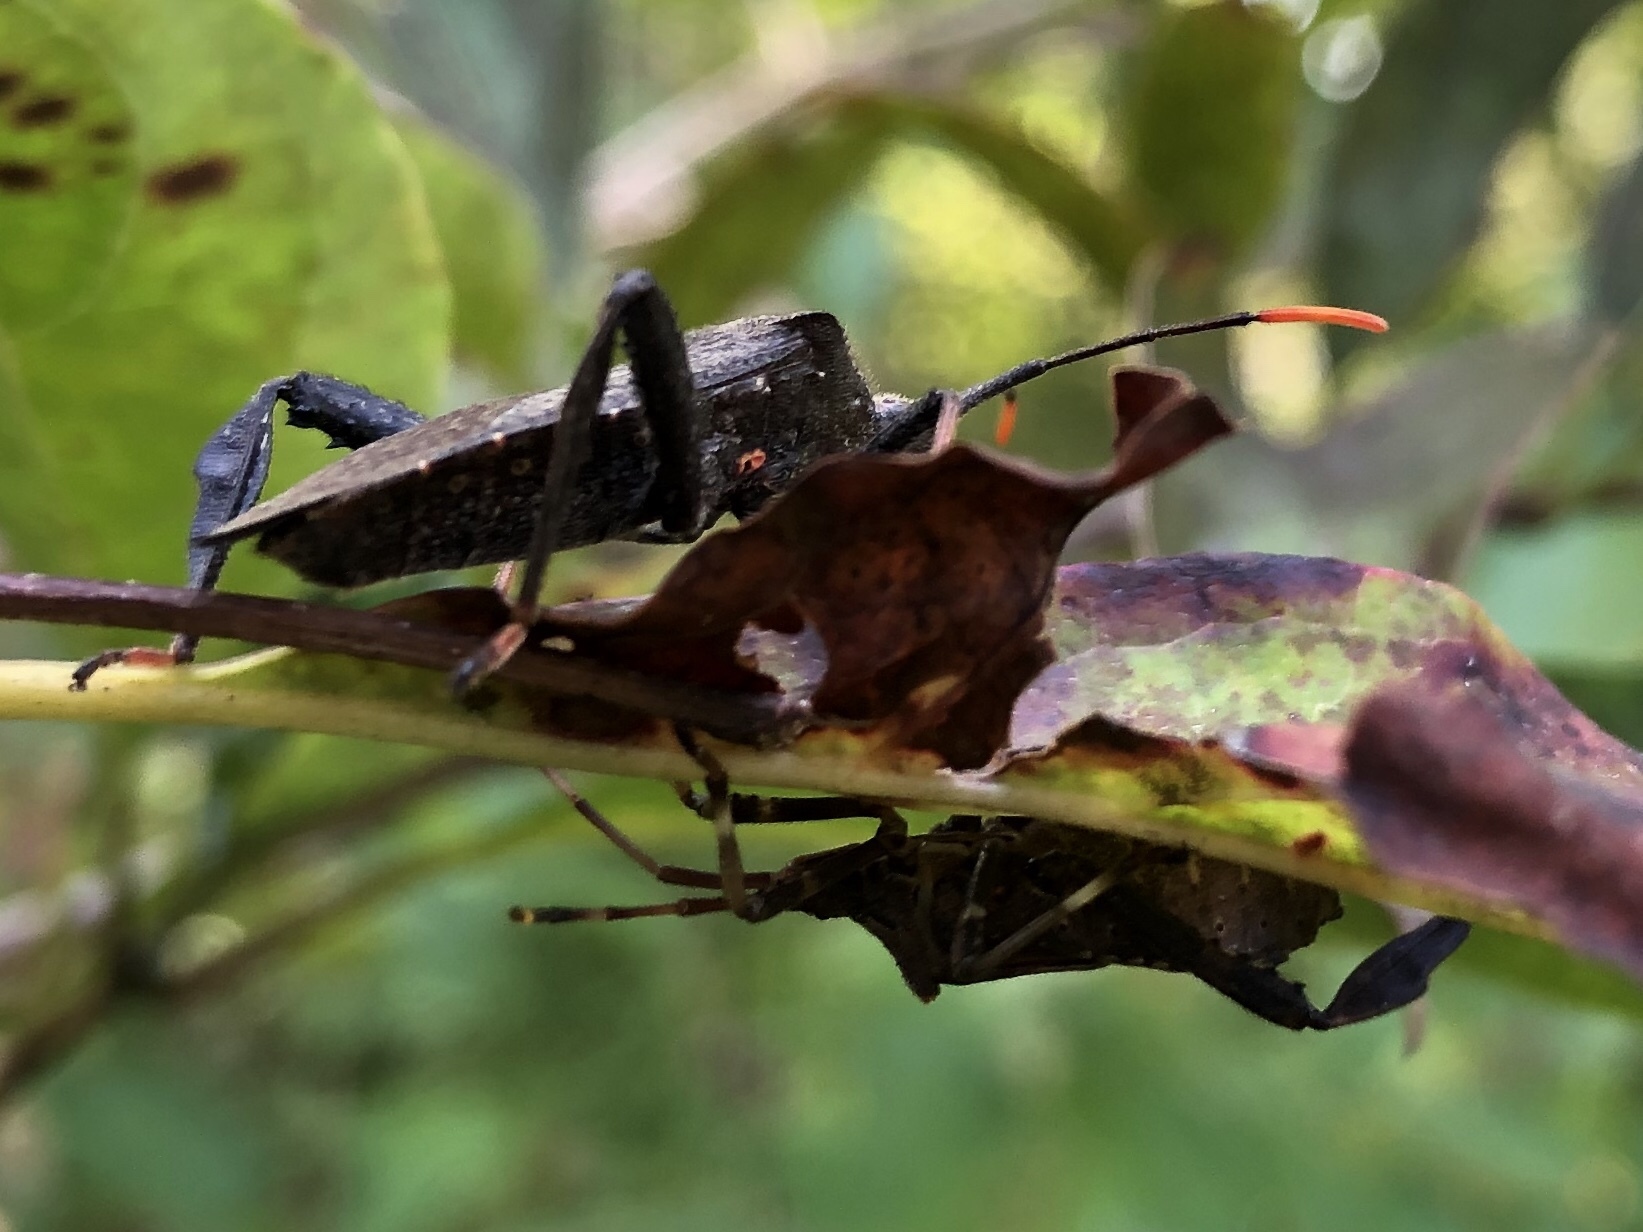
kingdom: Animalia
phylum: Arthropoda
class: Insecta
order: Hemiptera
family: Coreidae
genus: Acanthocephala
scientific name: Acanthocephala terminalis
